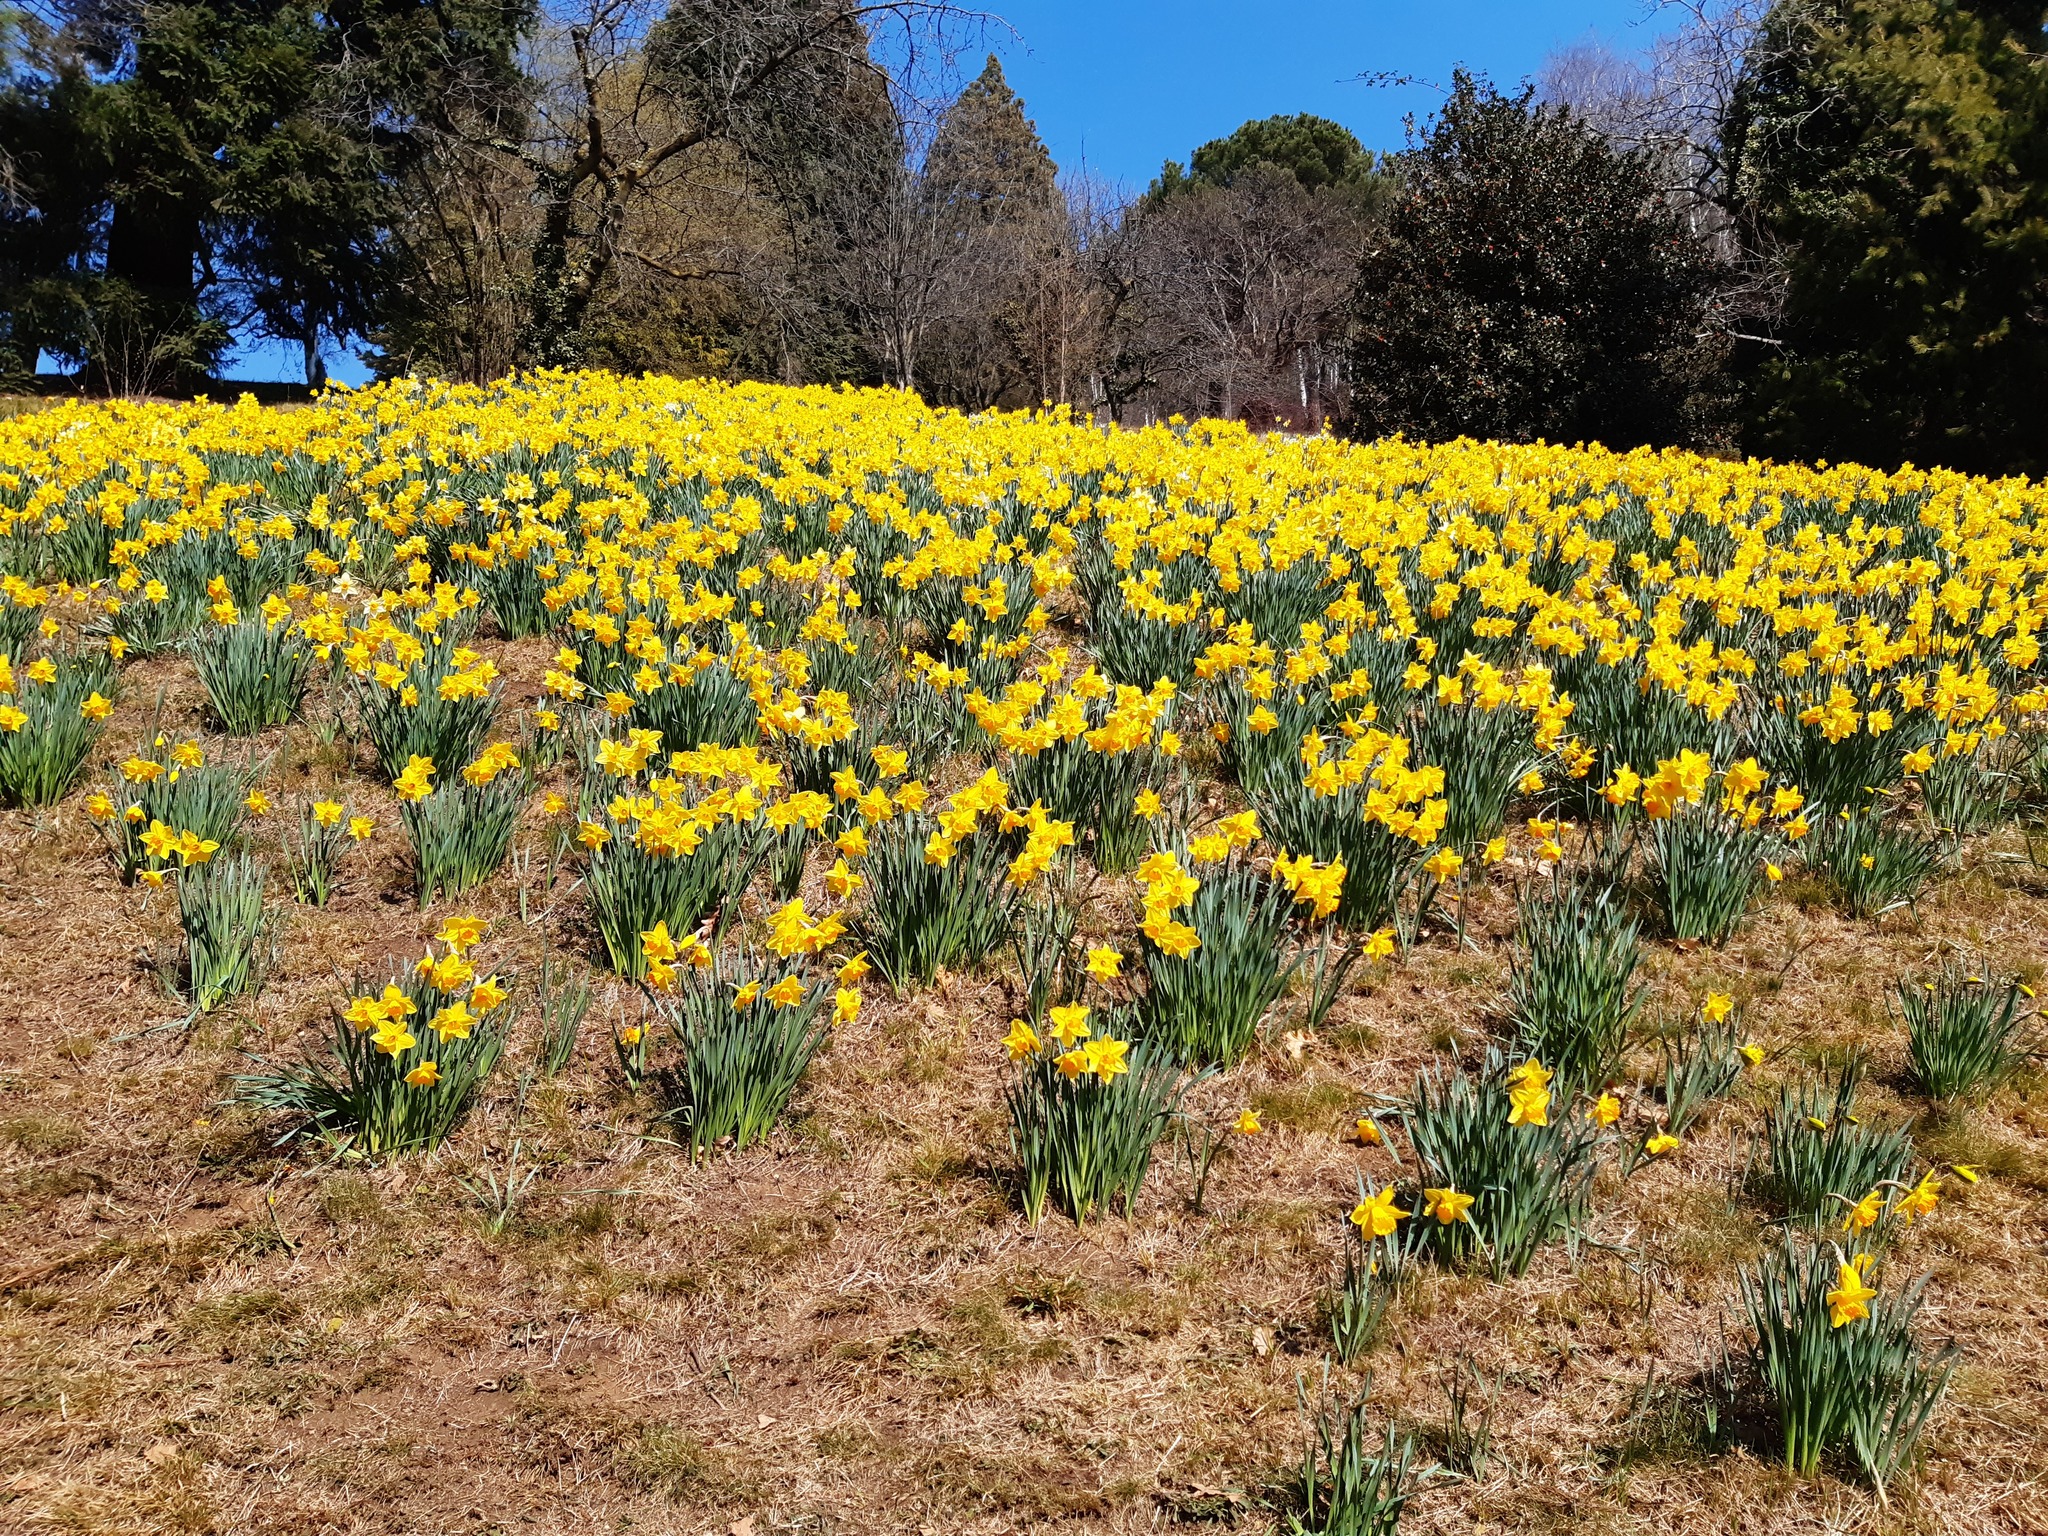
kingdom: Plantae
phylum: Tracheophyta
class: Liliopsida
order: Asparagales
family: Amaryllidaceae
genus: Narcissus
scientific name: Narcissus pseudonarcissus
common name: Daffodil
